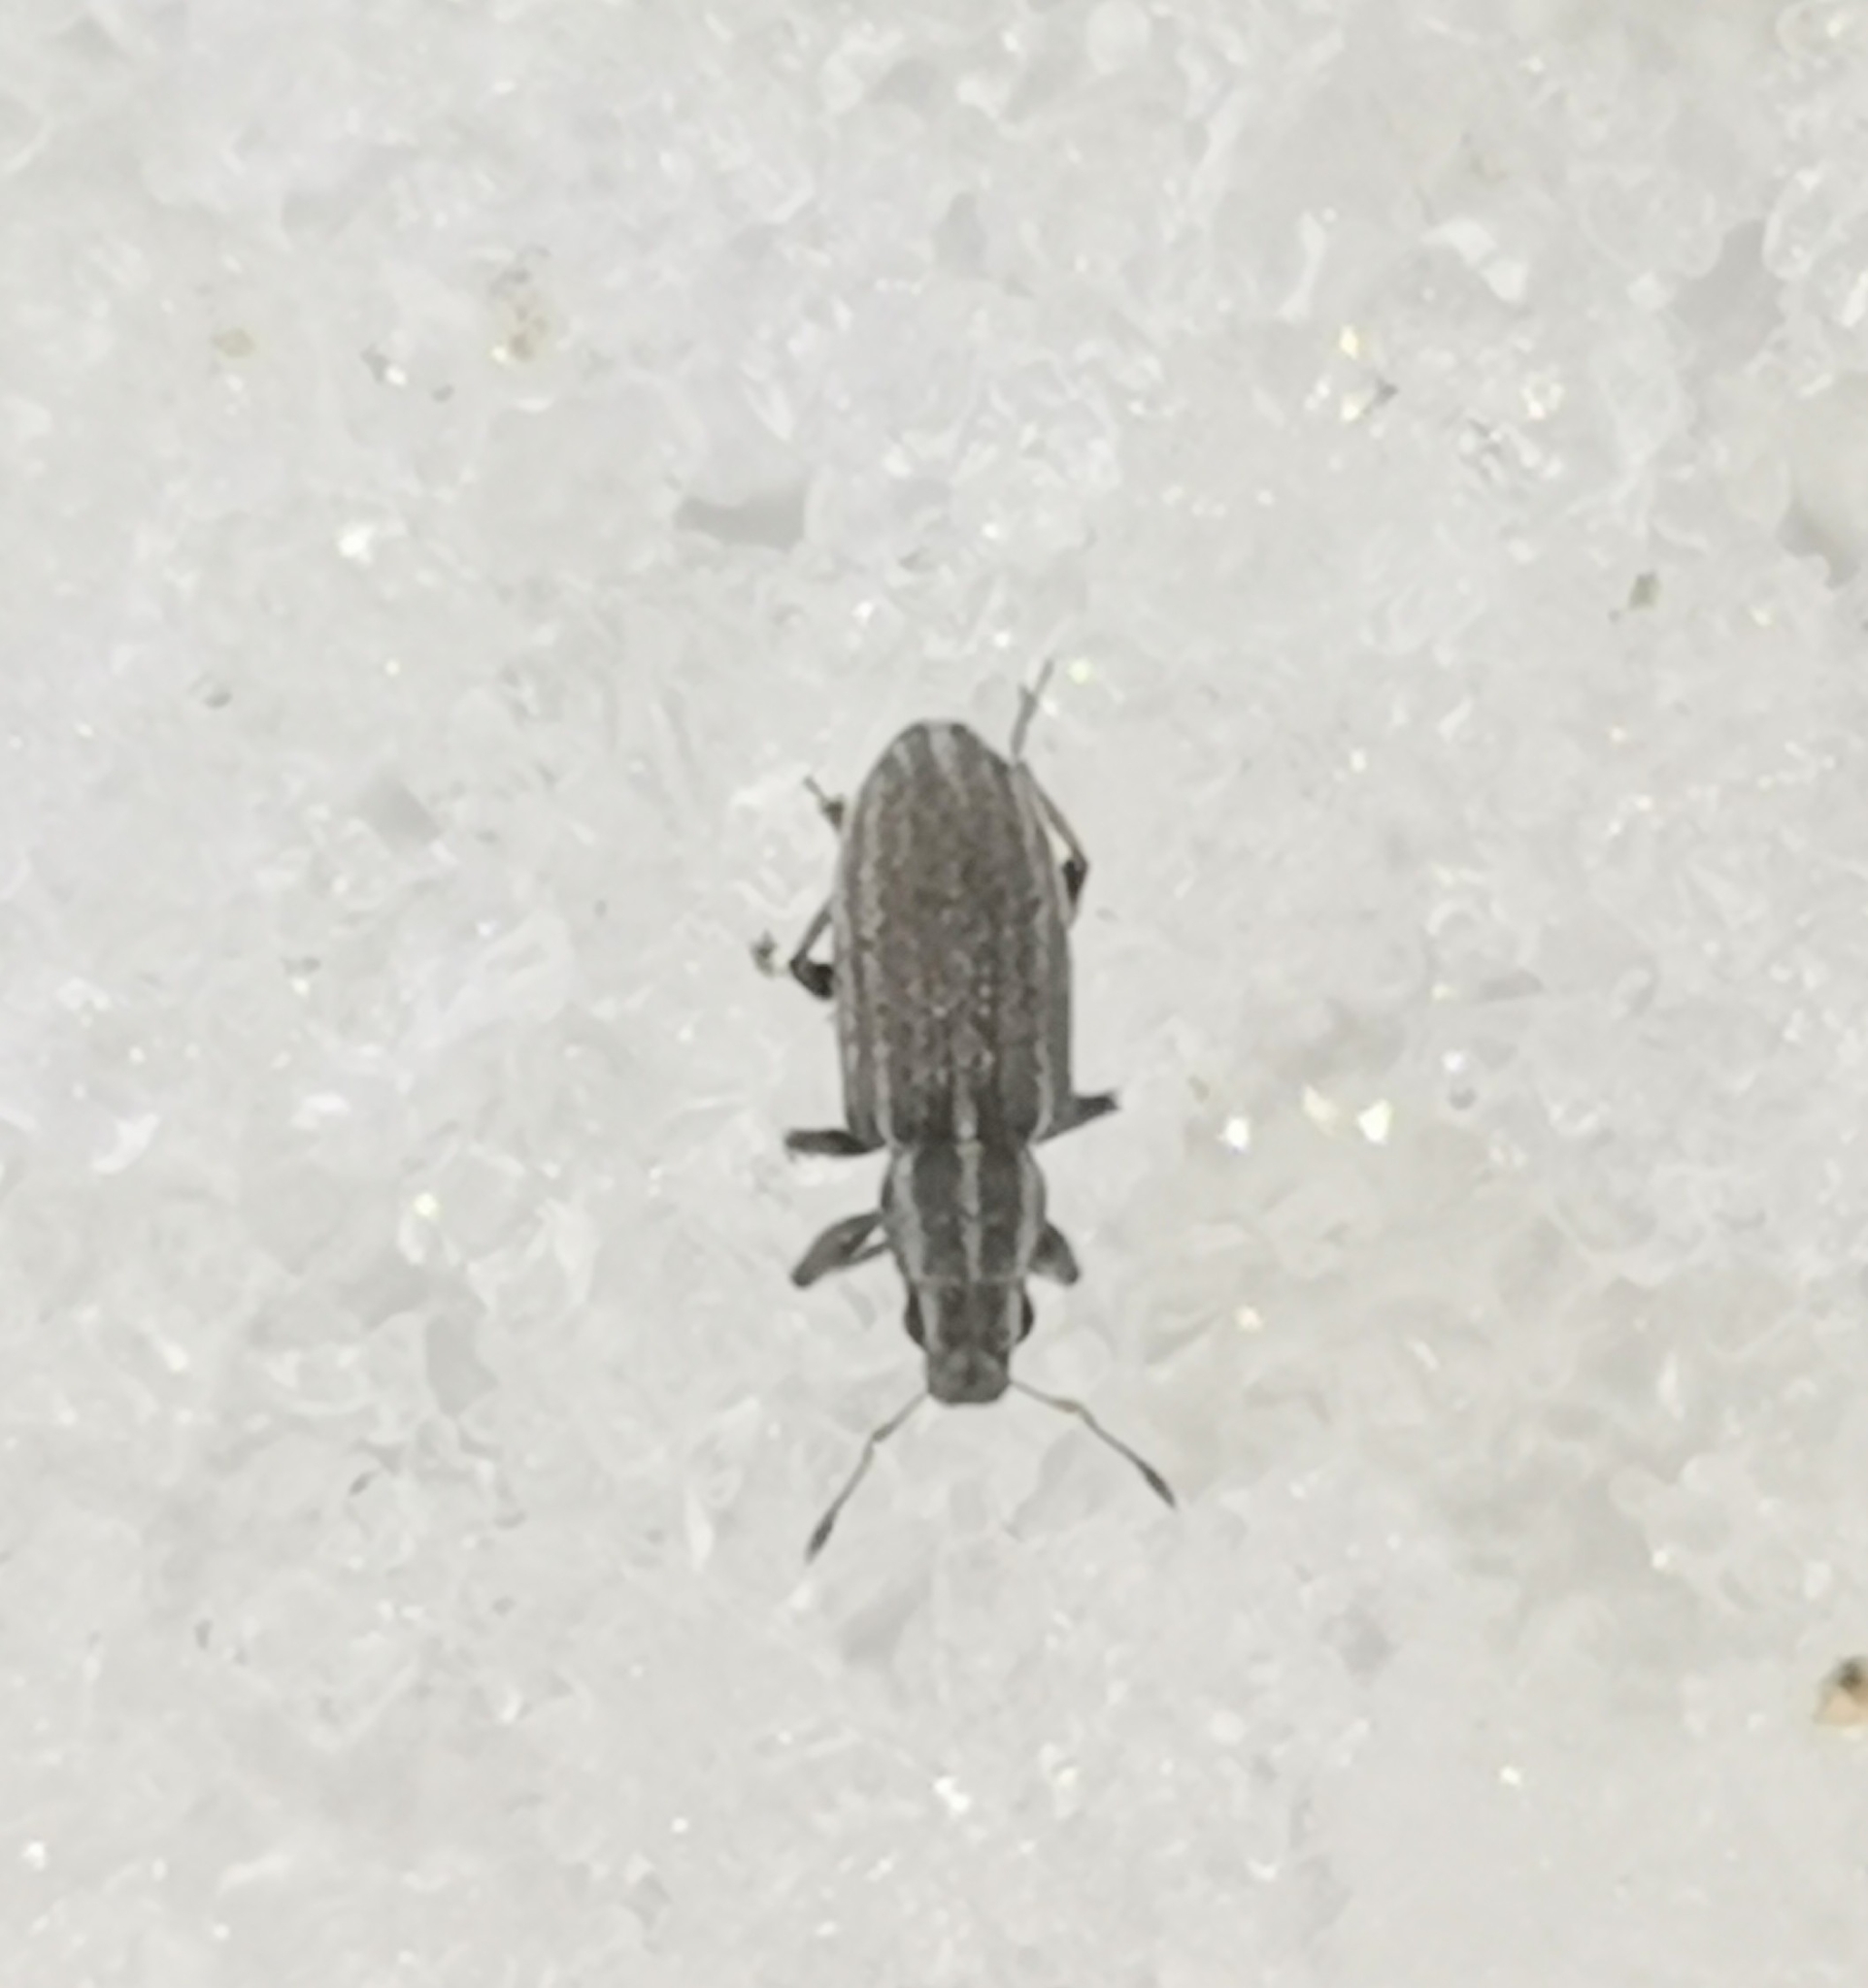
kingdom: Animalia
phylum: Arthropoda
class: Insecta
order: Coleoptera
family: Curculionidae
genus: Sitona
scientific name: Sitona lineatus
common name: Weevil
